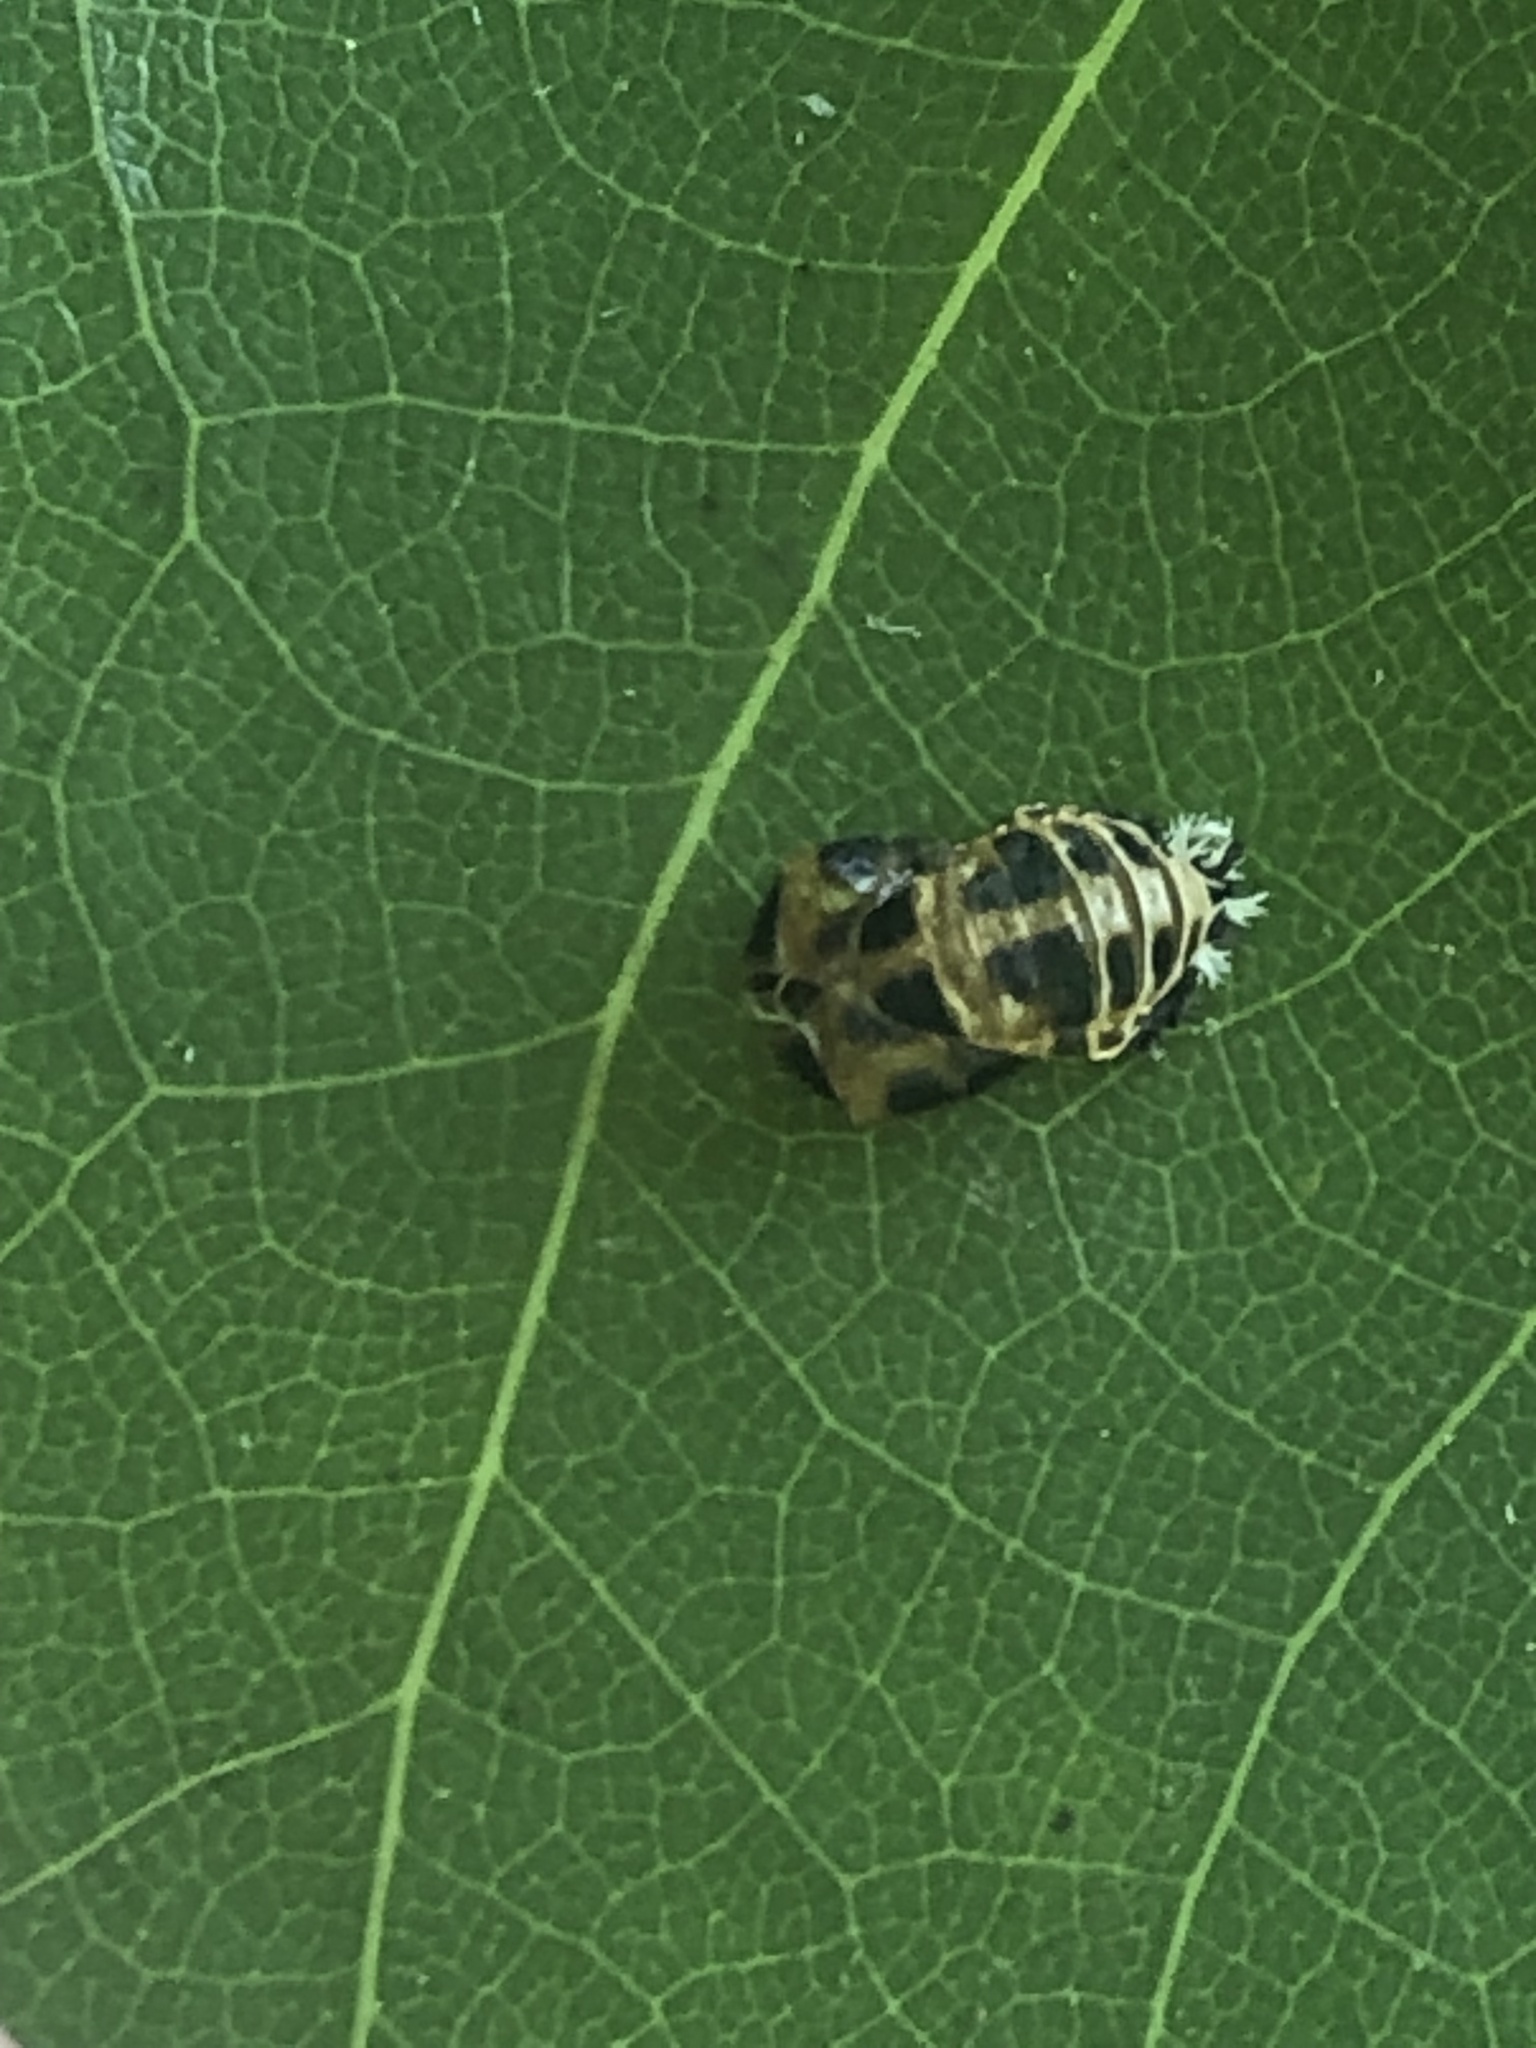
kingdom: Animalia
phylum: Arthropoda
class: Insecta
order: Coleoptera
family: Coccinellidae
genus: Harmonia
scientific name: Harmonia axyridis
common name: Harlequin ladybird
